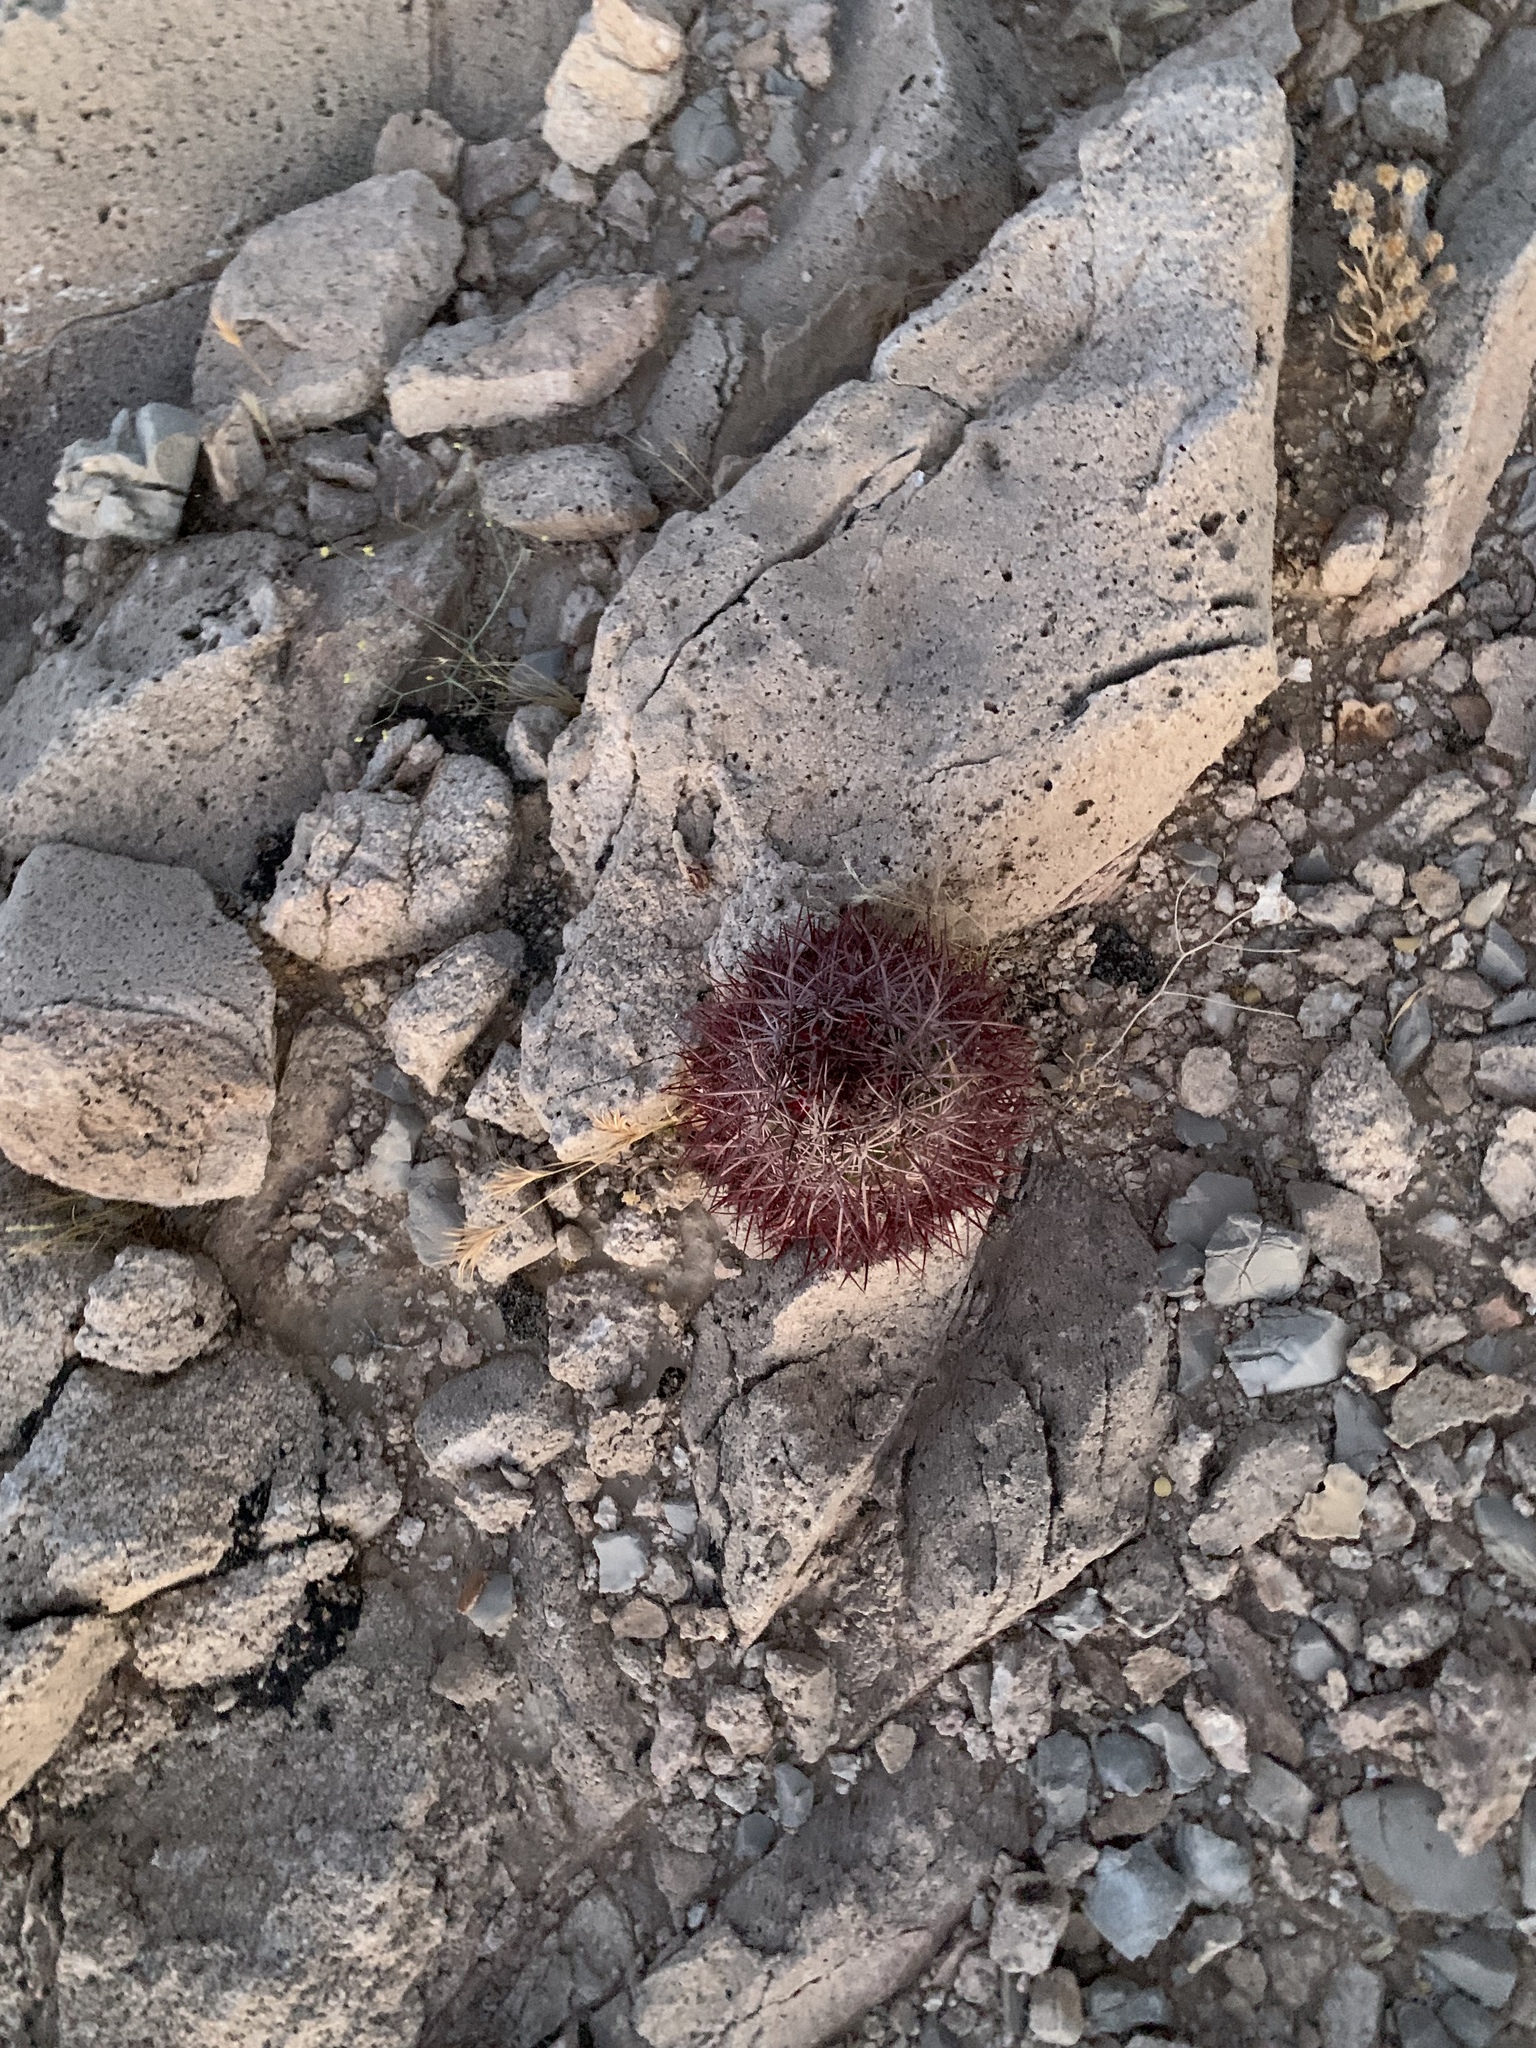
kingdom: Plantae
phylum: Tracheophyta
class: Magnoliopsida
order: Caryophyllales
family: Cactaceae
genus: Sclerocactus
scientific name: Sclerocactus johnsonii
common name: Eight-spine fishhook cactus
